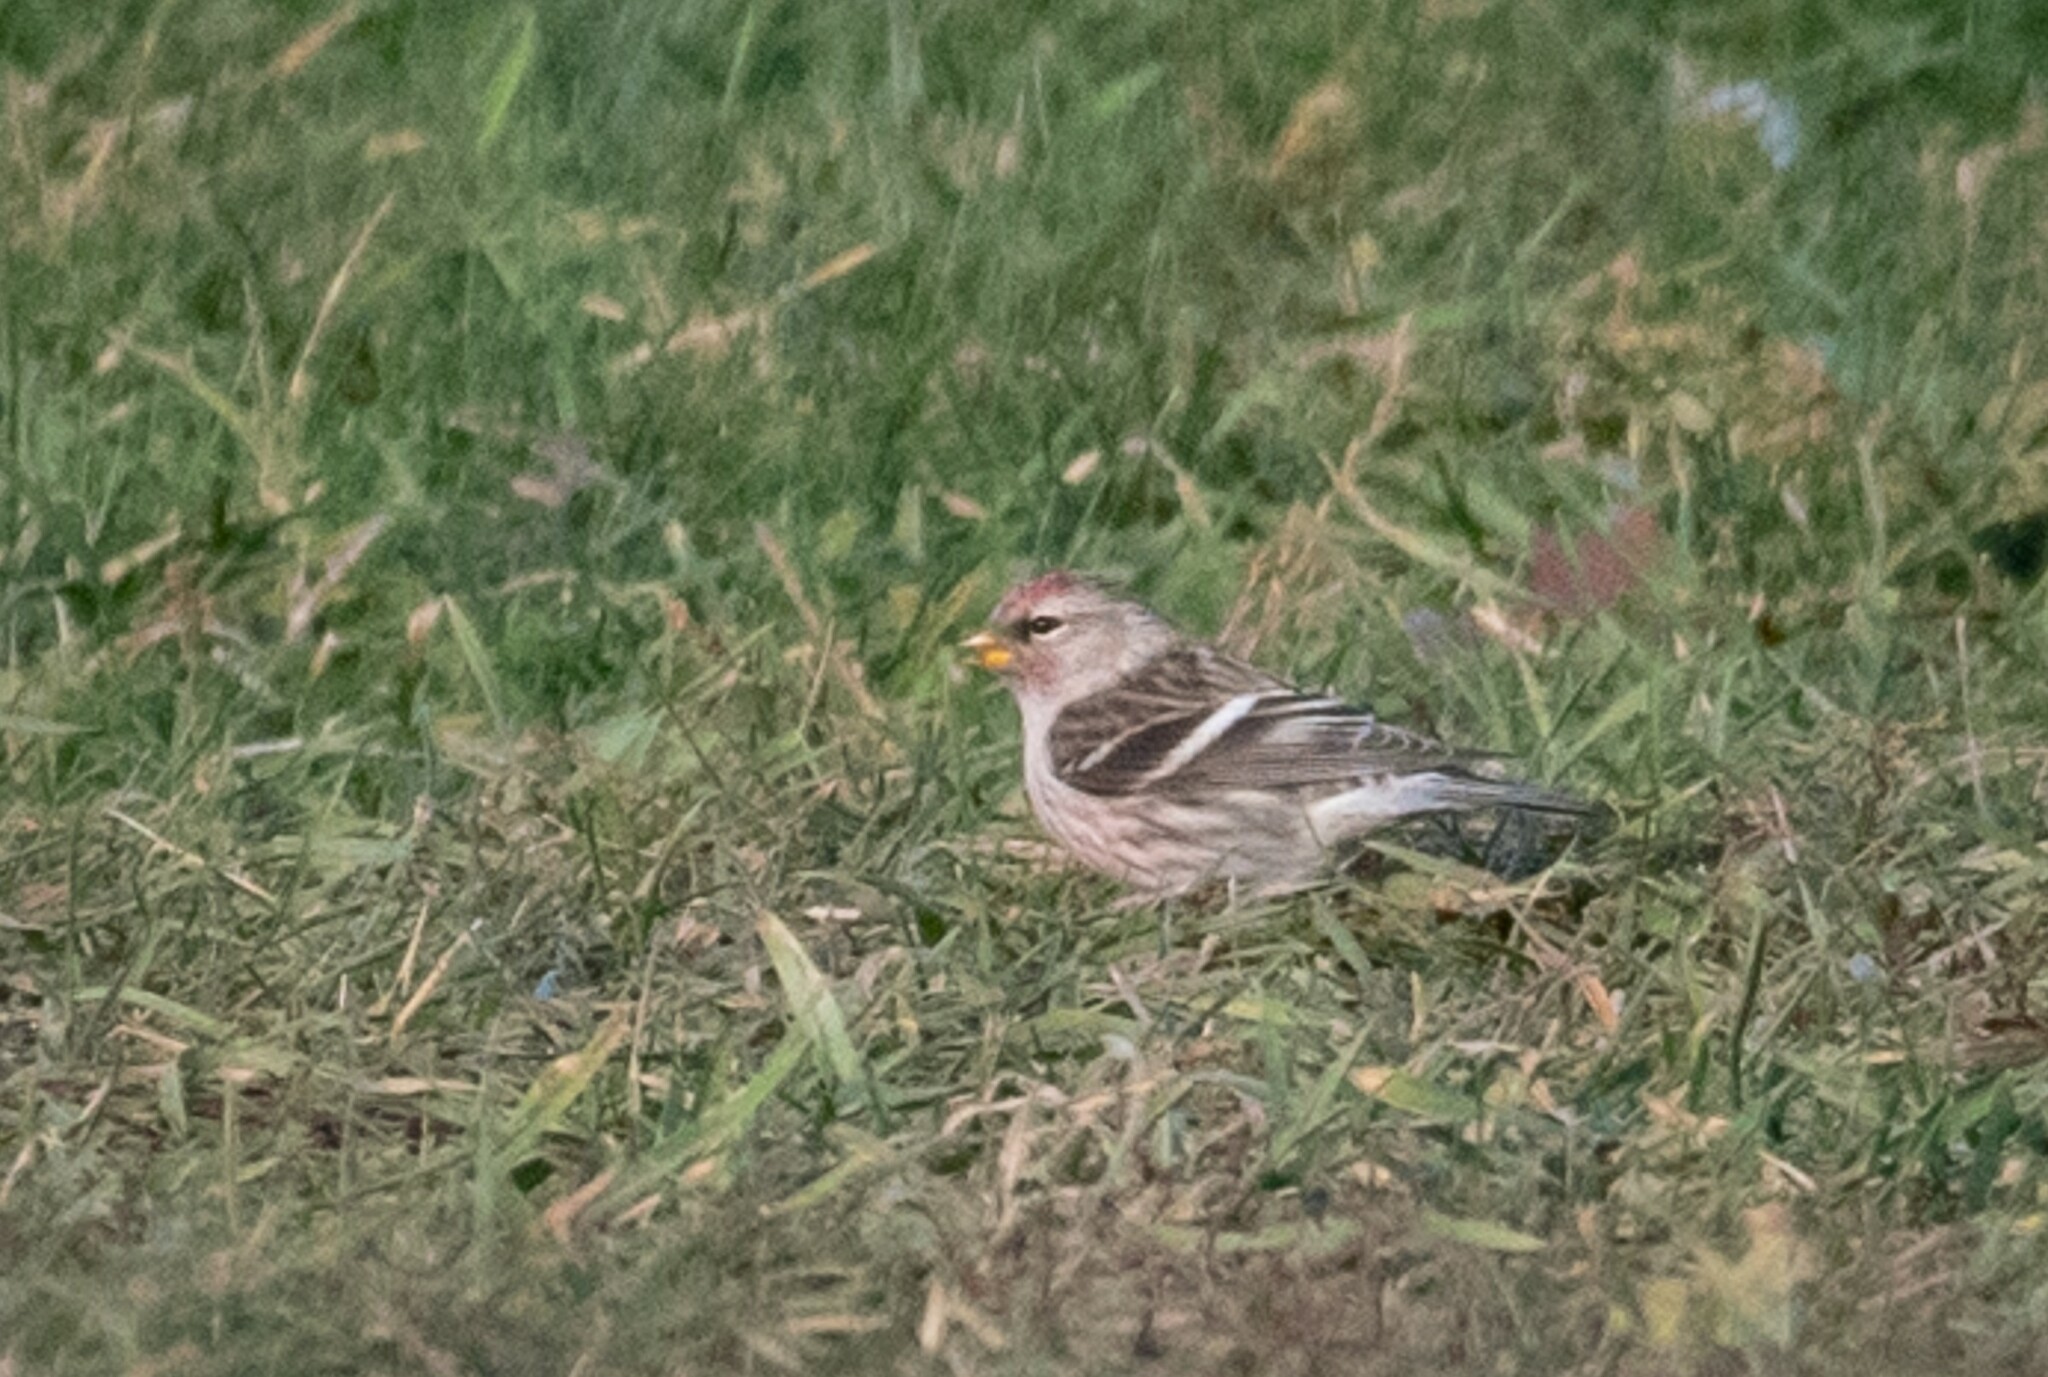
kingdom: Animalia
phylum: Chordata
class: Aves
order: Passeriformes
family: Fringillidae
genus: Acanthis
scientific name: Acanthis flammea
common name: Common redpoll
